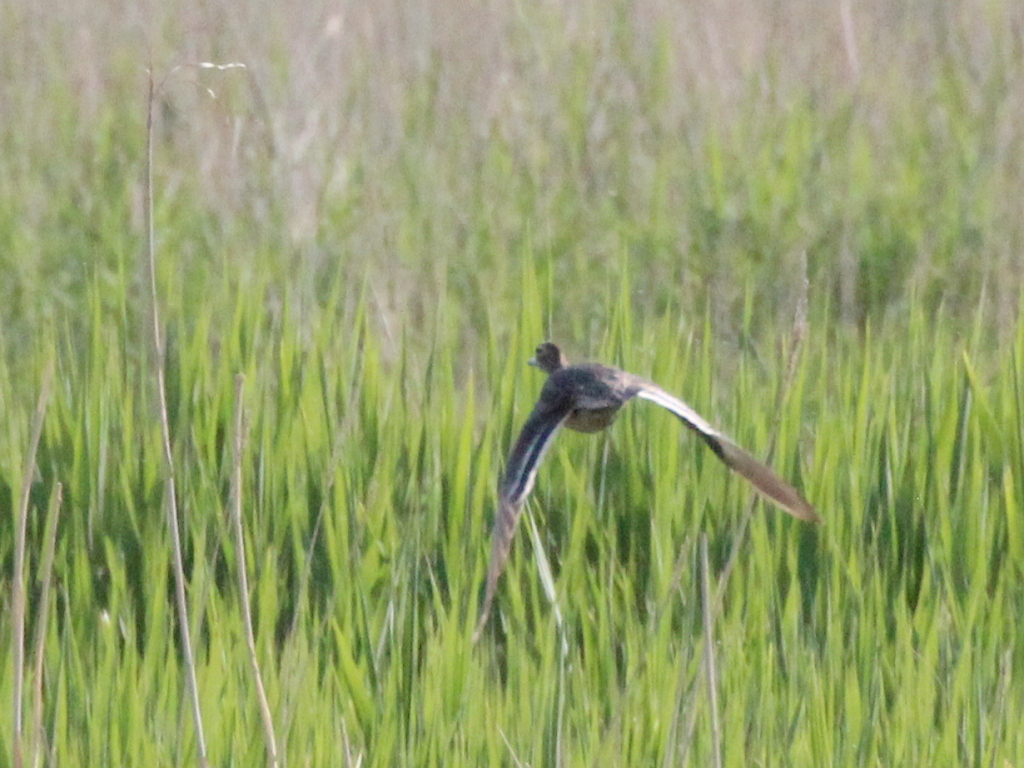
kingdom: Animalia
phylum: Chordata
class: Aves
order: Anseriformes
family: Anatidae
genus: Spatula
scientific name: Spatula querquedula
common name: Garganey
